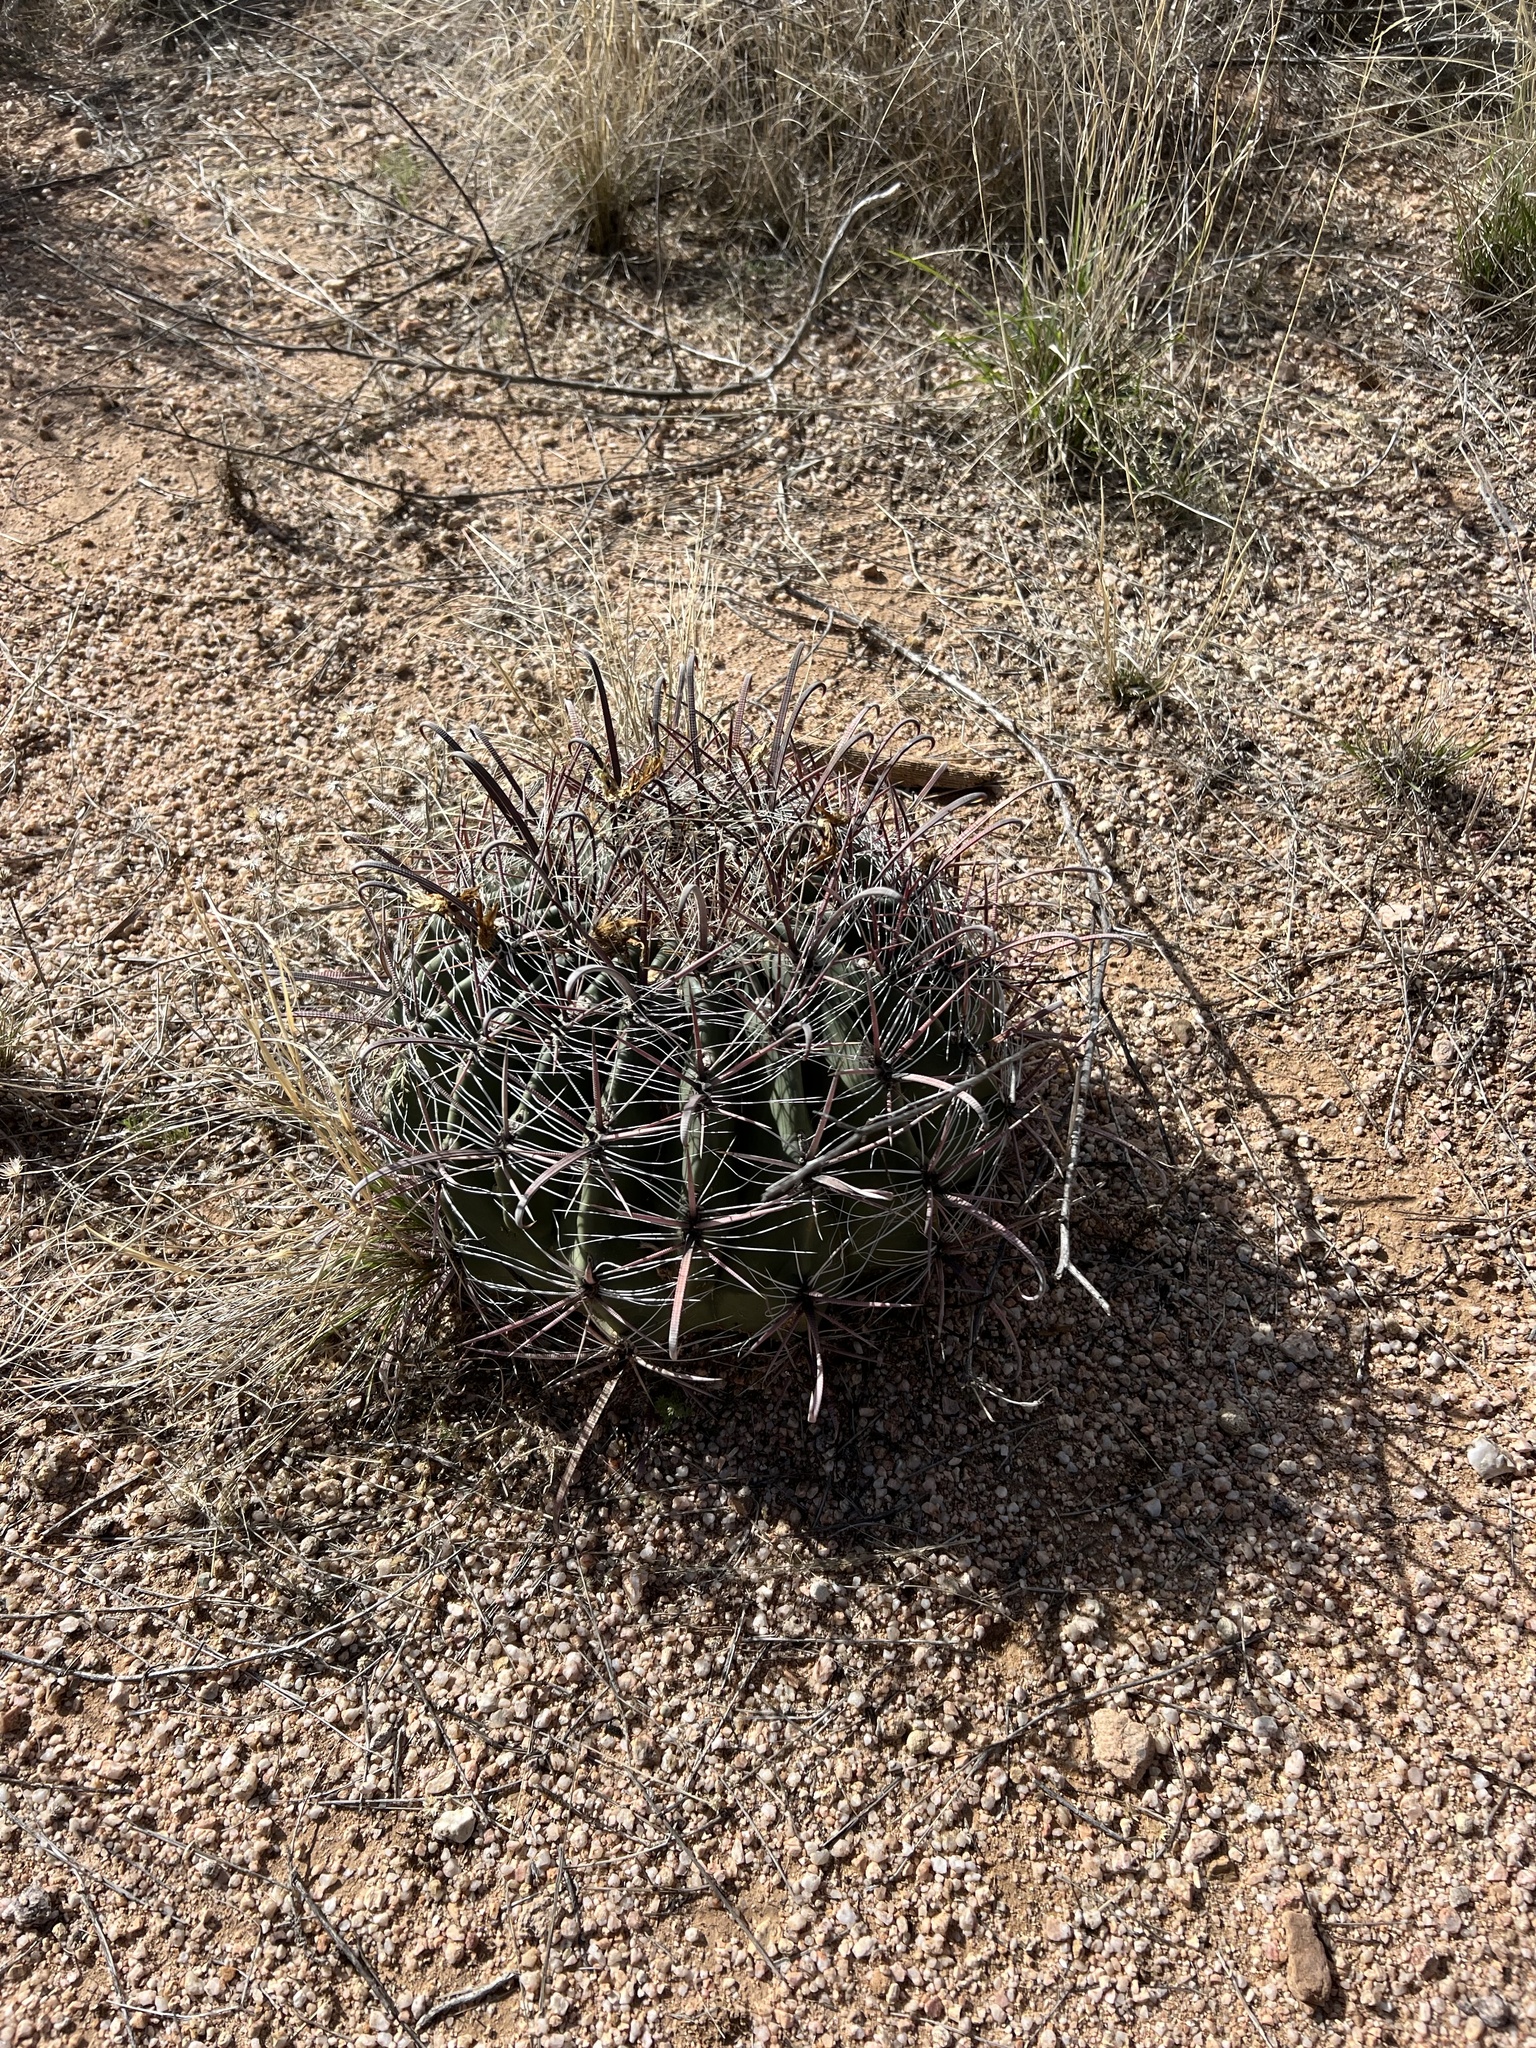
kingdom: Plantae
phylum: Tracheophyta
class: Magnoliopsida
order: Caryophyllales
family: Cactaceae
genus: Ferocactus
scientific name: Ferocactus wislizeni
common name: Candy barrel cactus
